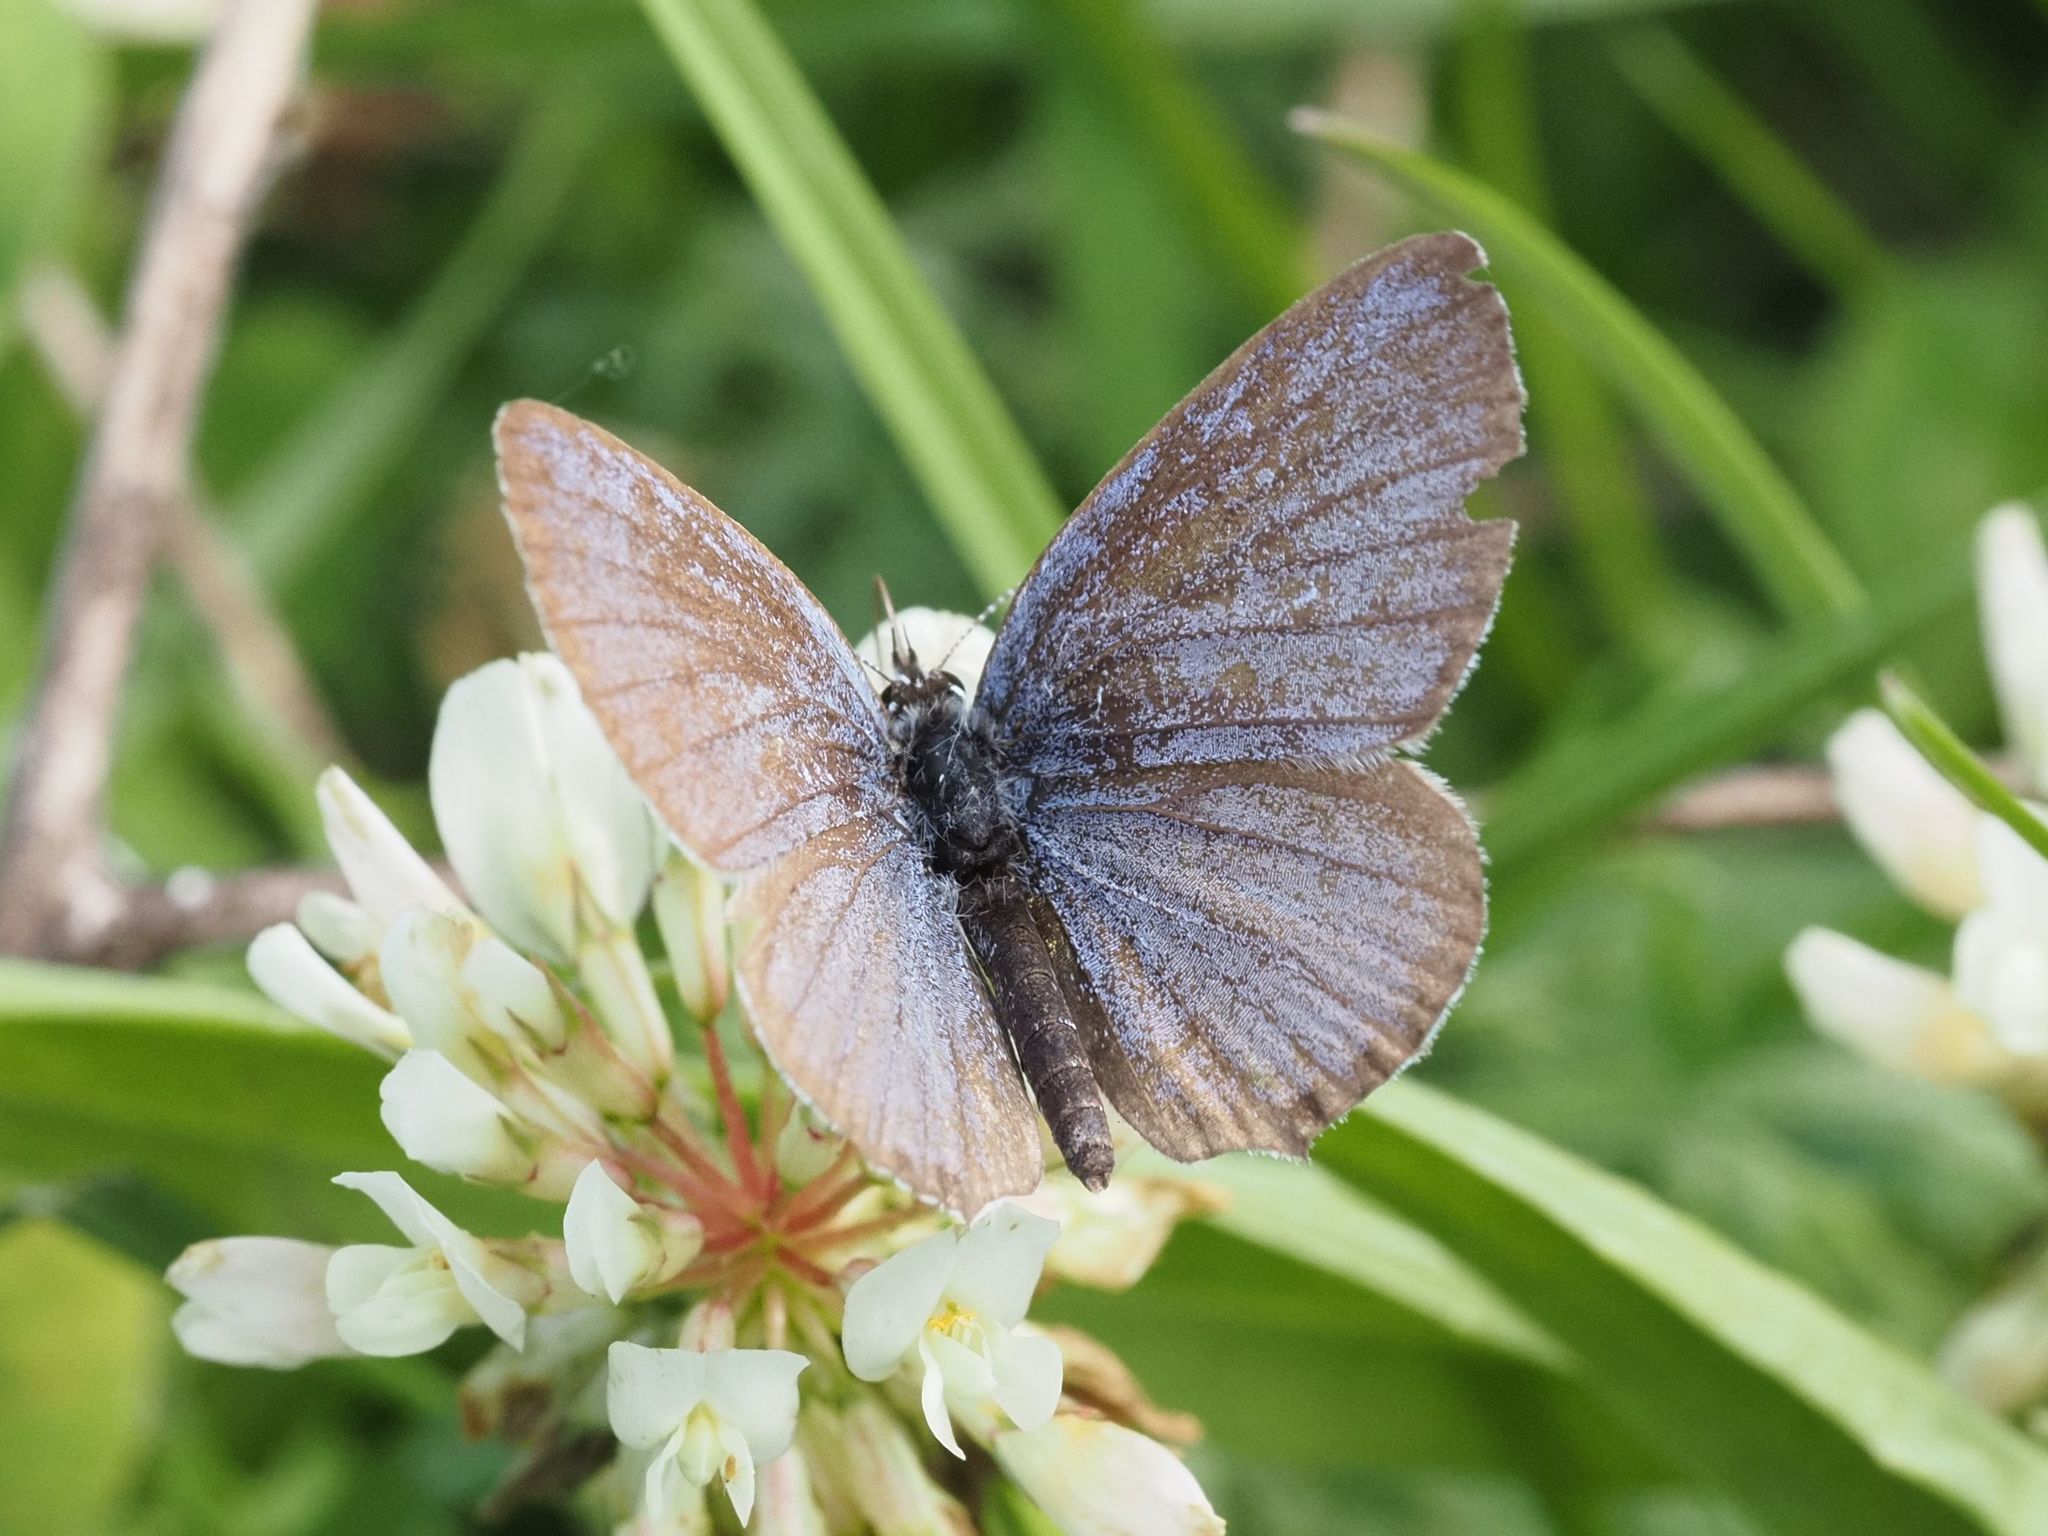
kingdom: Animalia
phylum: Arthropoda
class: Insecta
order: Lepidoptera
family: Lycaenidae
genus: Elkalyce
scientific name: Elkalyce argiades
